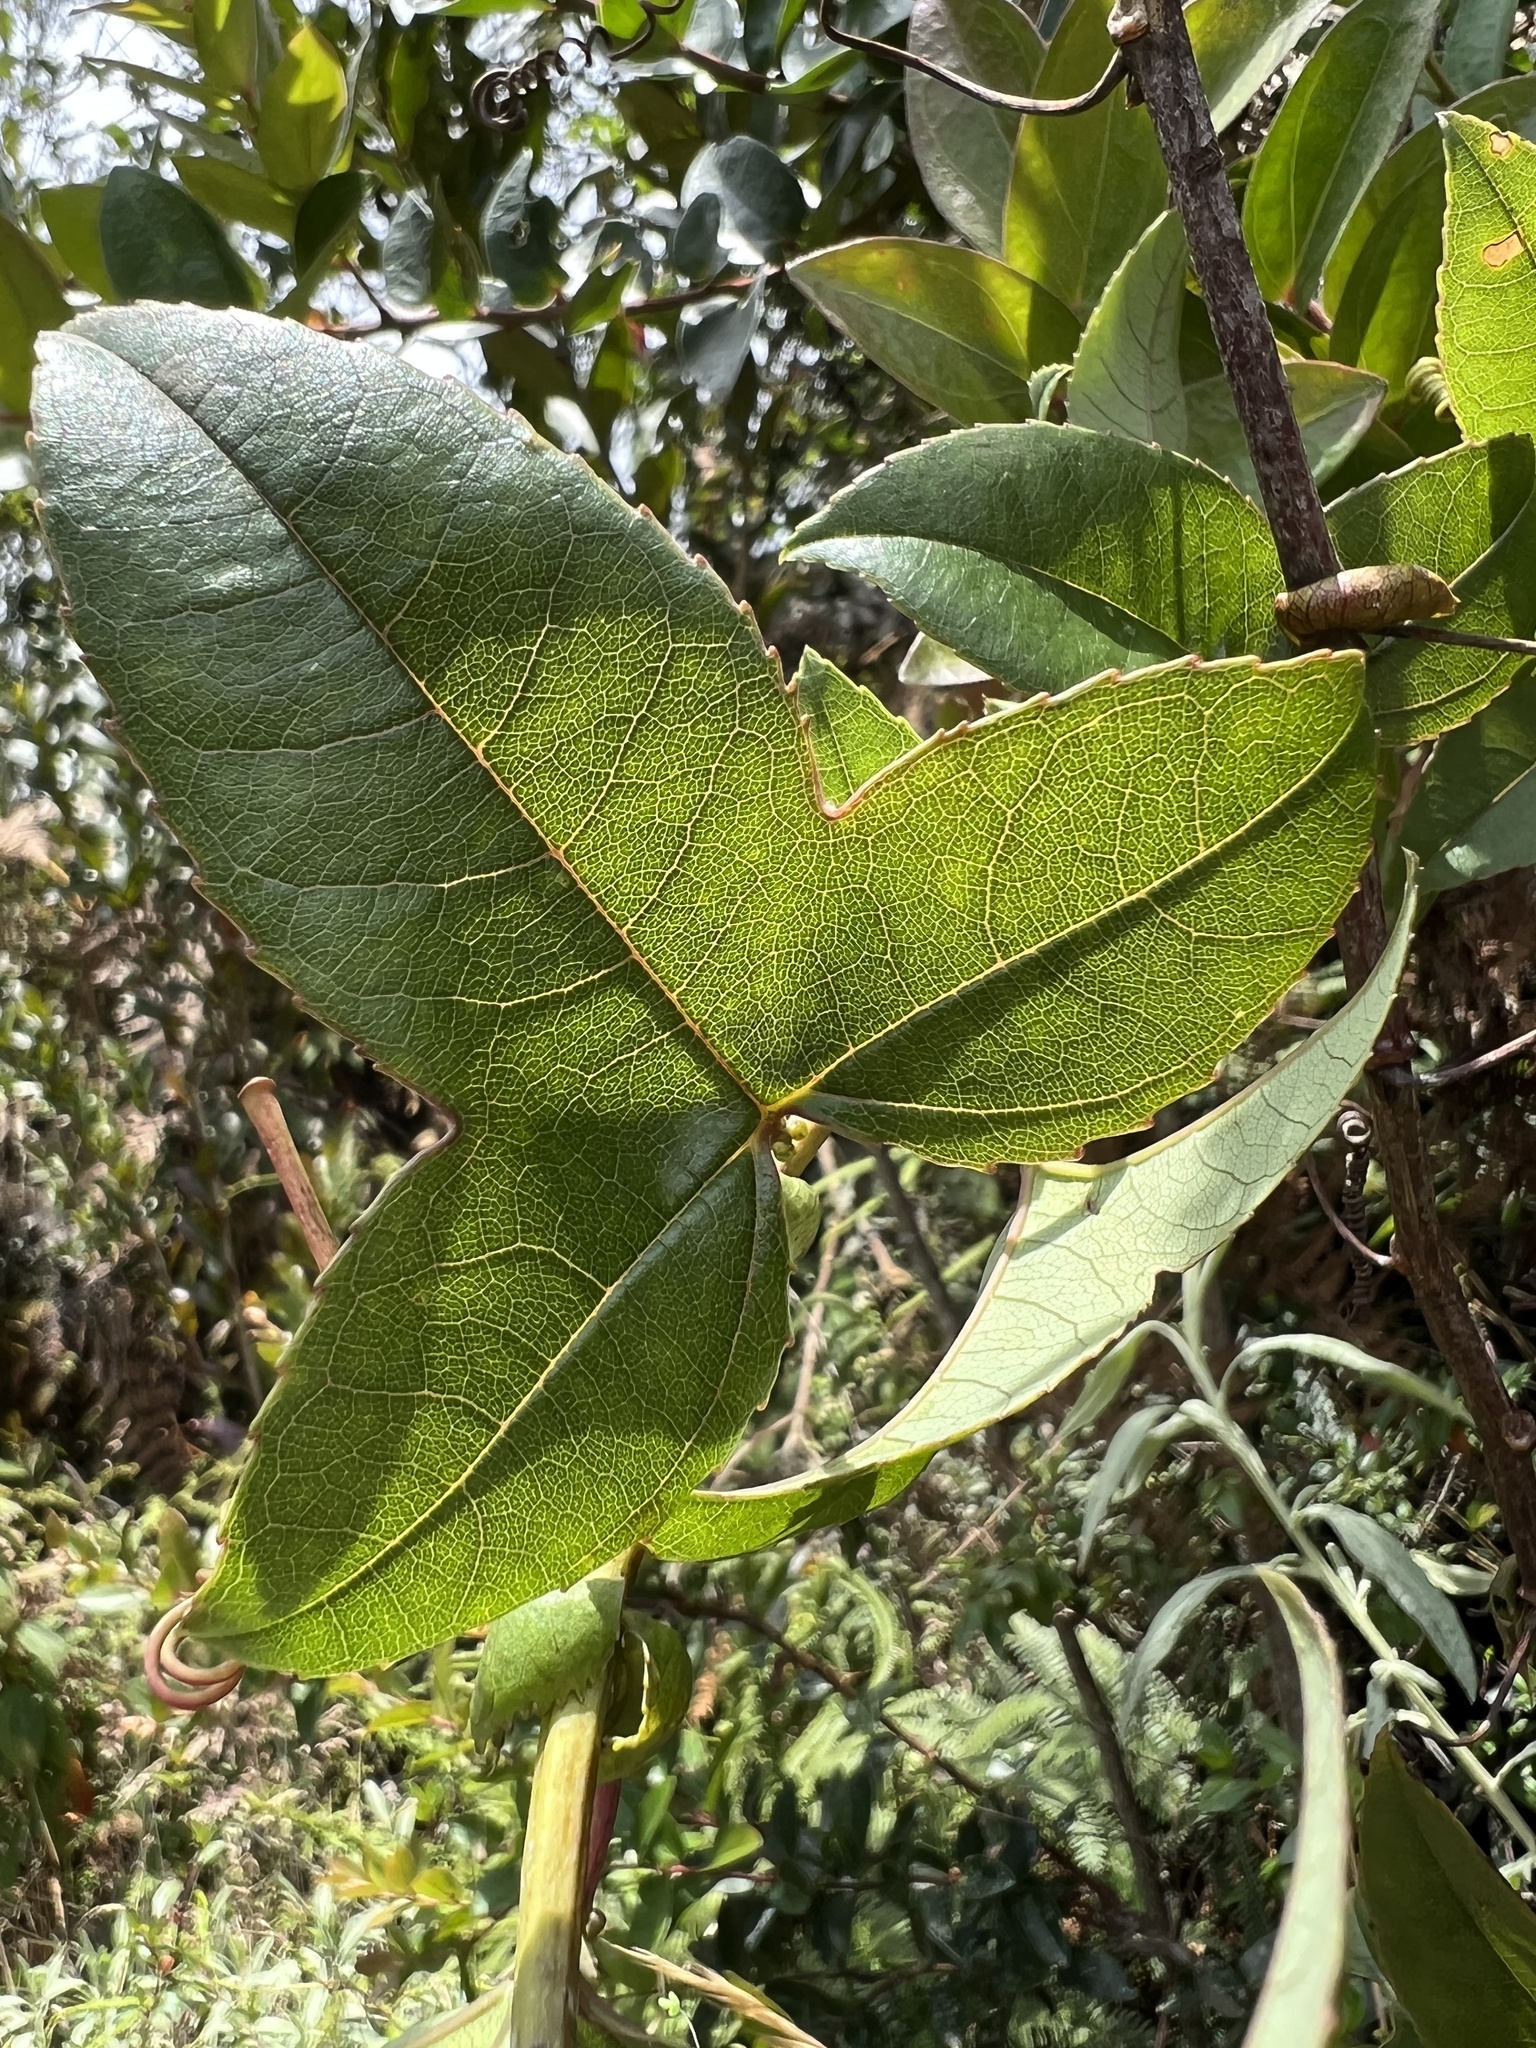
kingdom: Plantae
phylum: Tracheophyta
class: Magnoliopsida
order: Malpighiales
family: Passifloraceae
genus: Passiflora
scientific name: Passiflora cumbalensis
